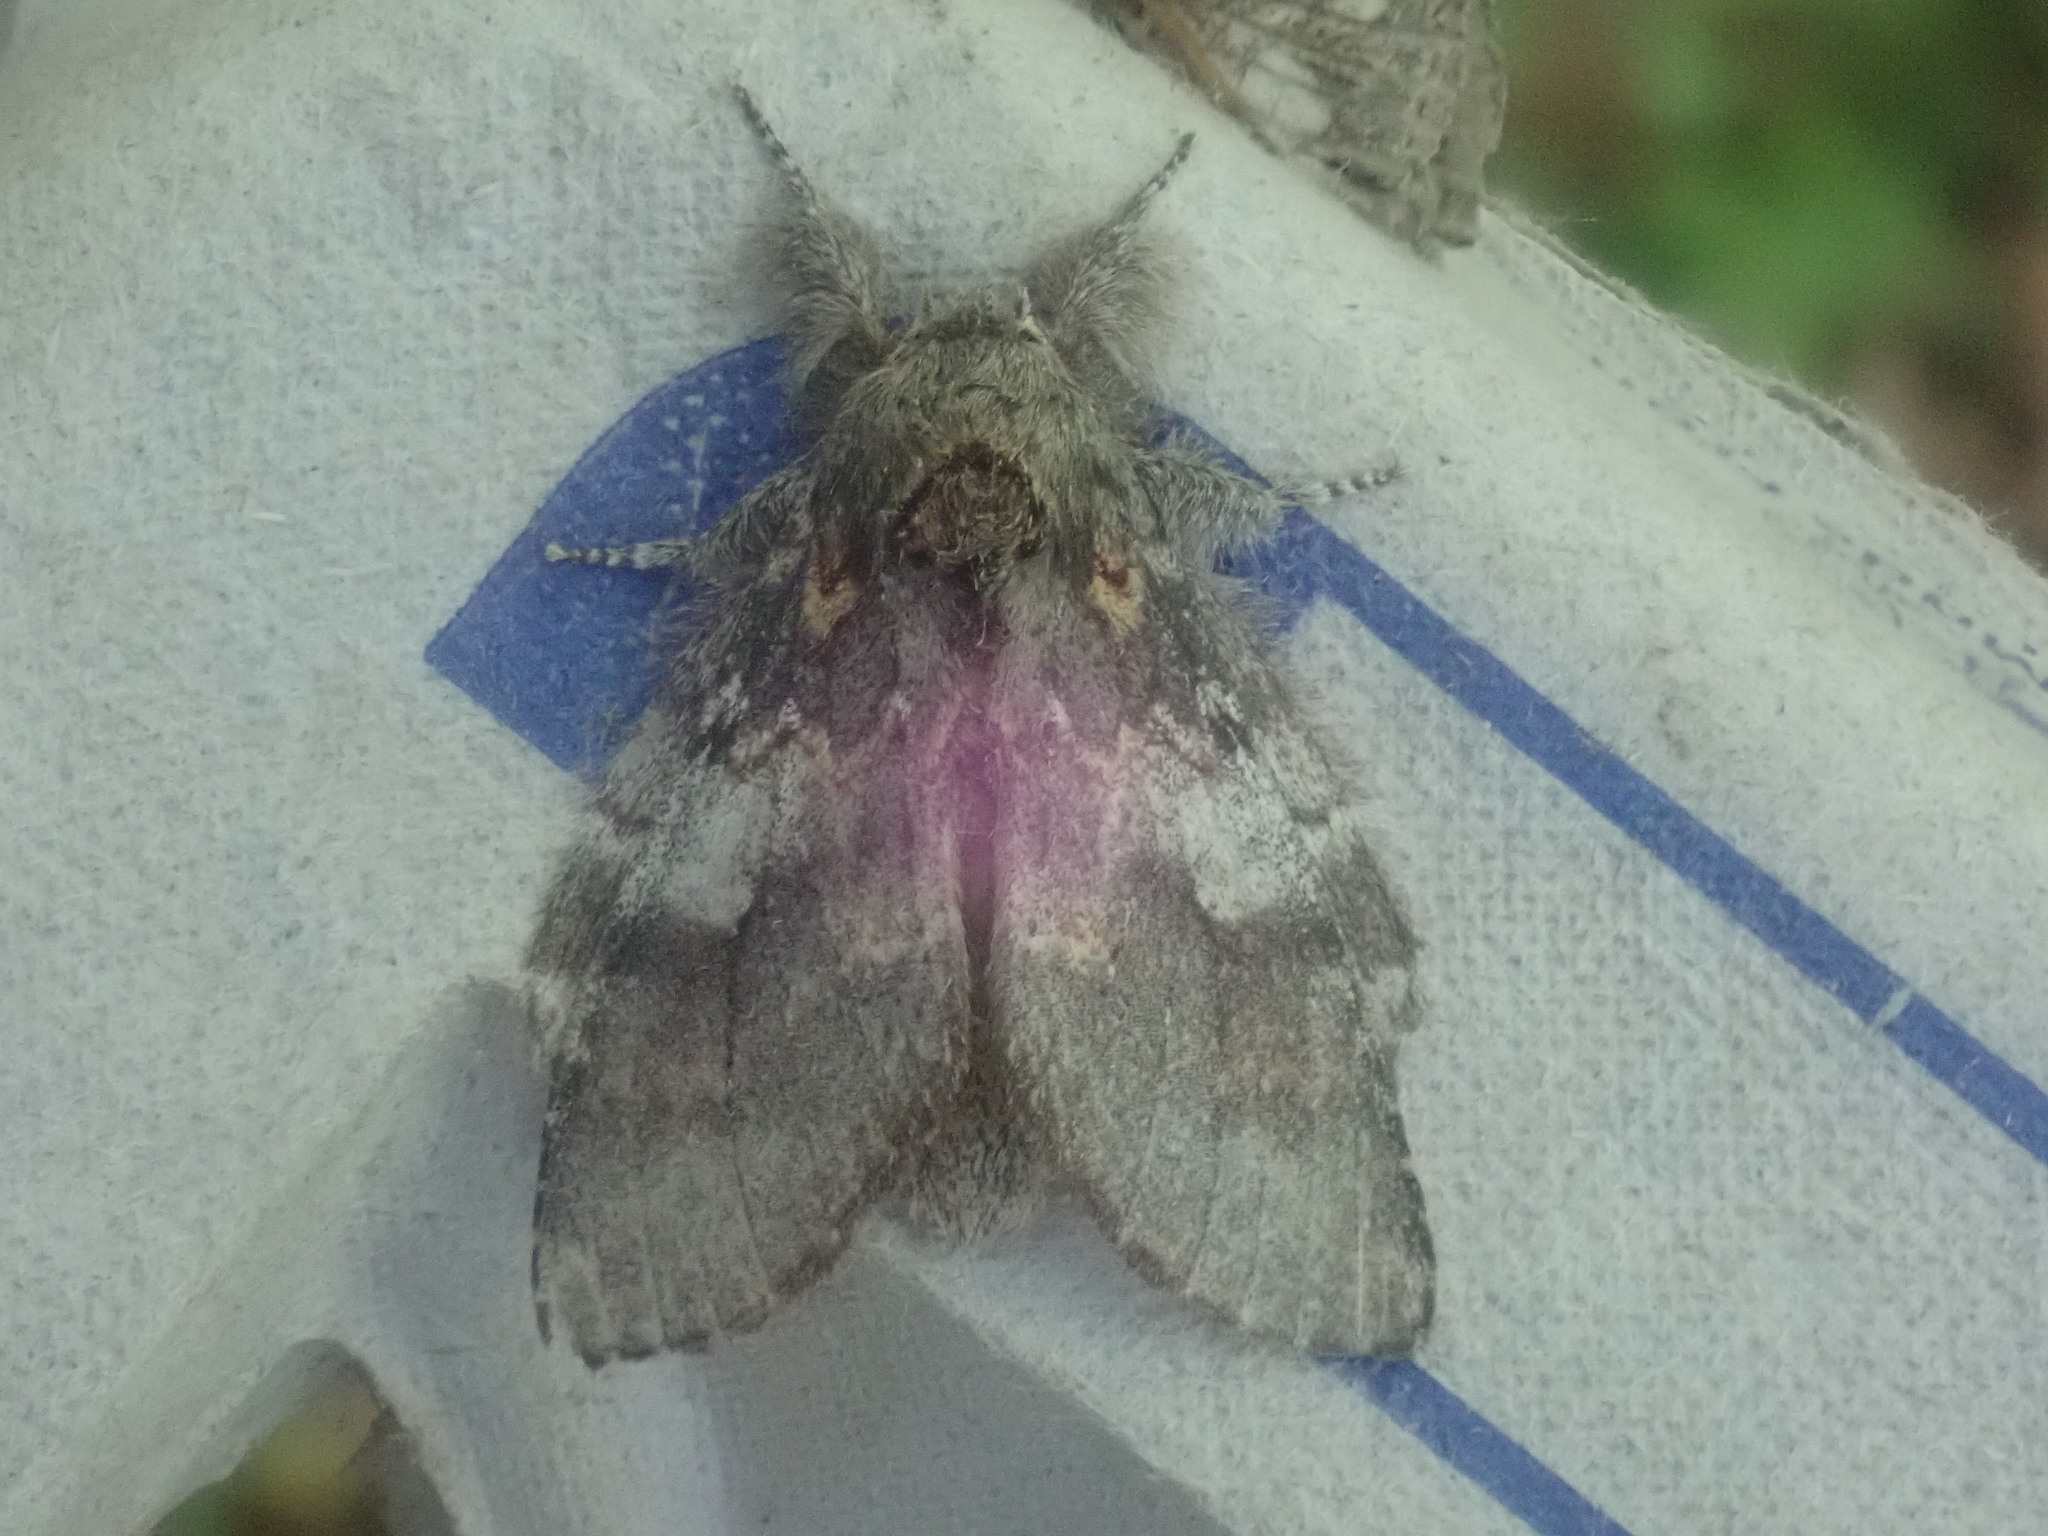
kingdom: Animalia
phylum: Arthropoda
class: Insecta
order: Lepidoptera
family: Notodontidae
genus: Peridea
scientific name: Peridea angulosa
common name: Angulose prominent
